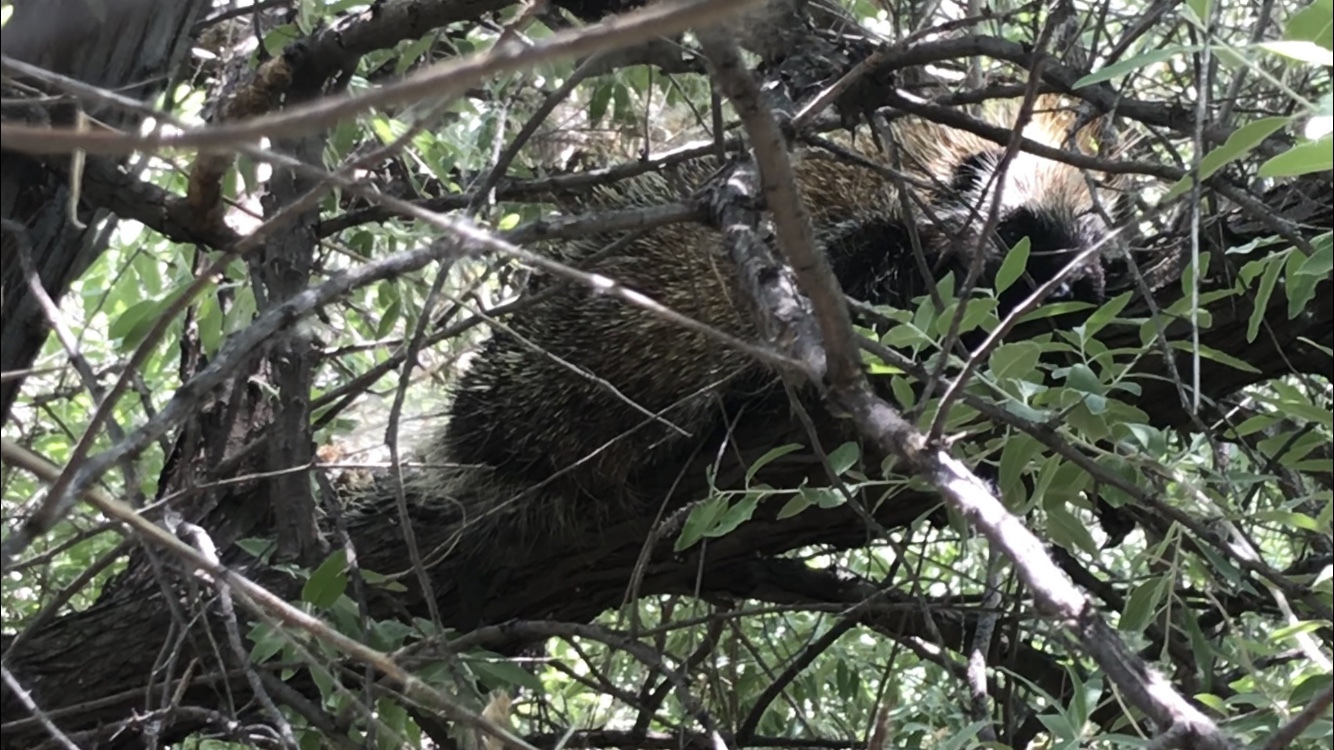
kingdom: Animalia
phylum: Chordata
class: Mammalia
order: Rodentia
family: Erethizontidae
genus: Erethizon
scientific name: Erethizon dorsatus
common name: North american porcupine
